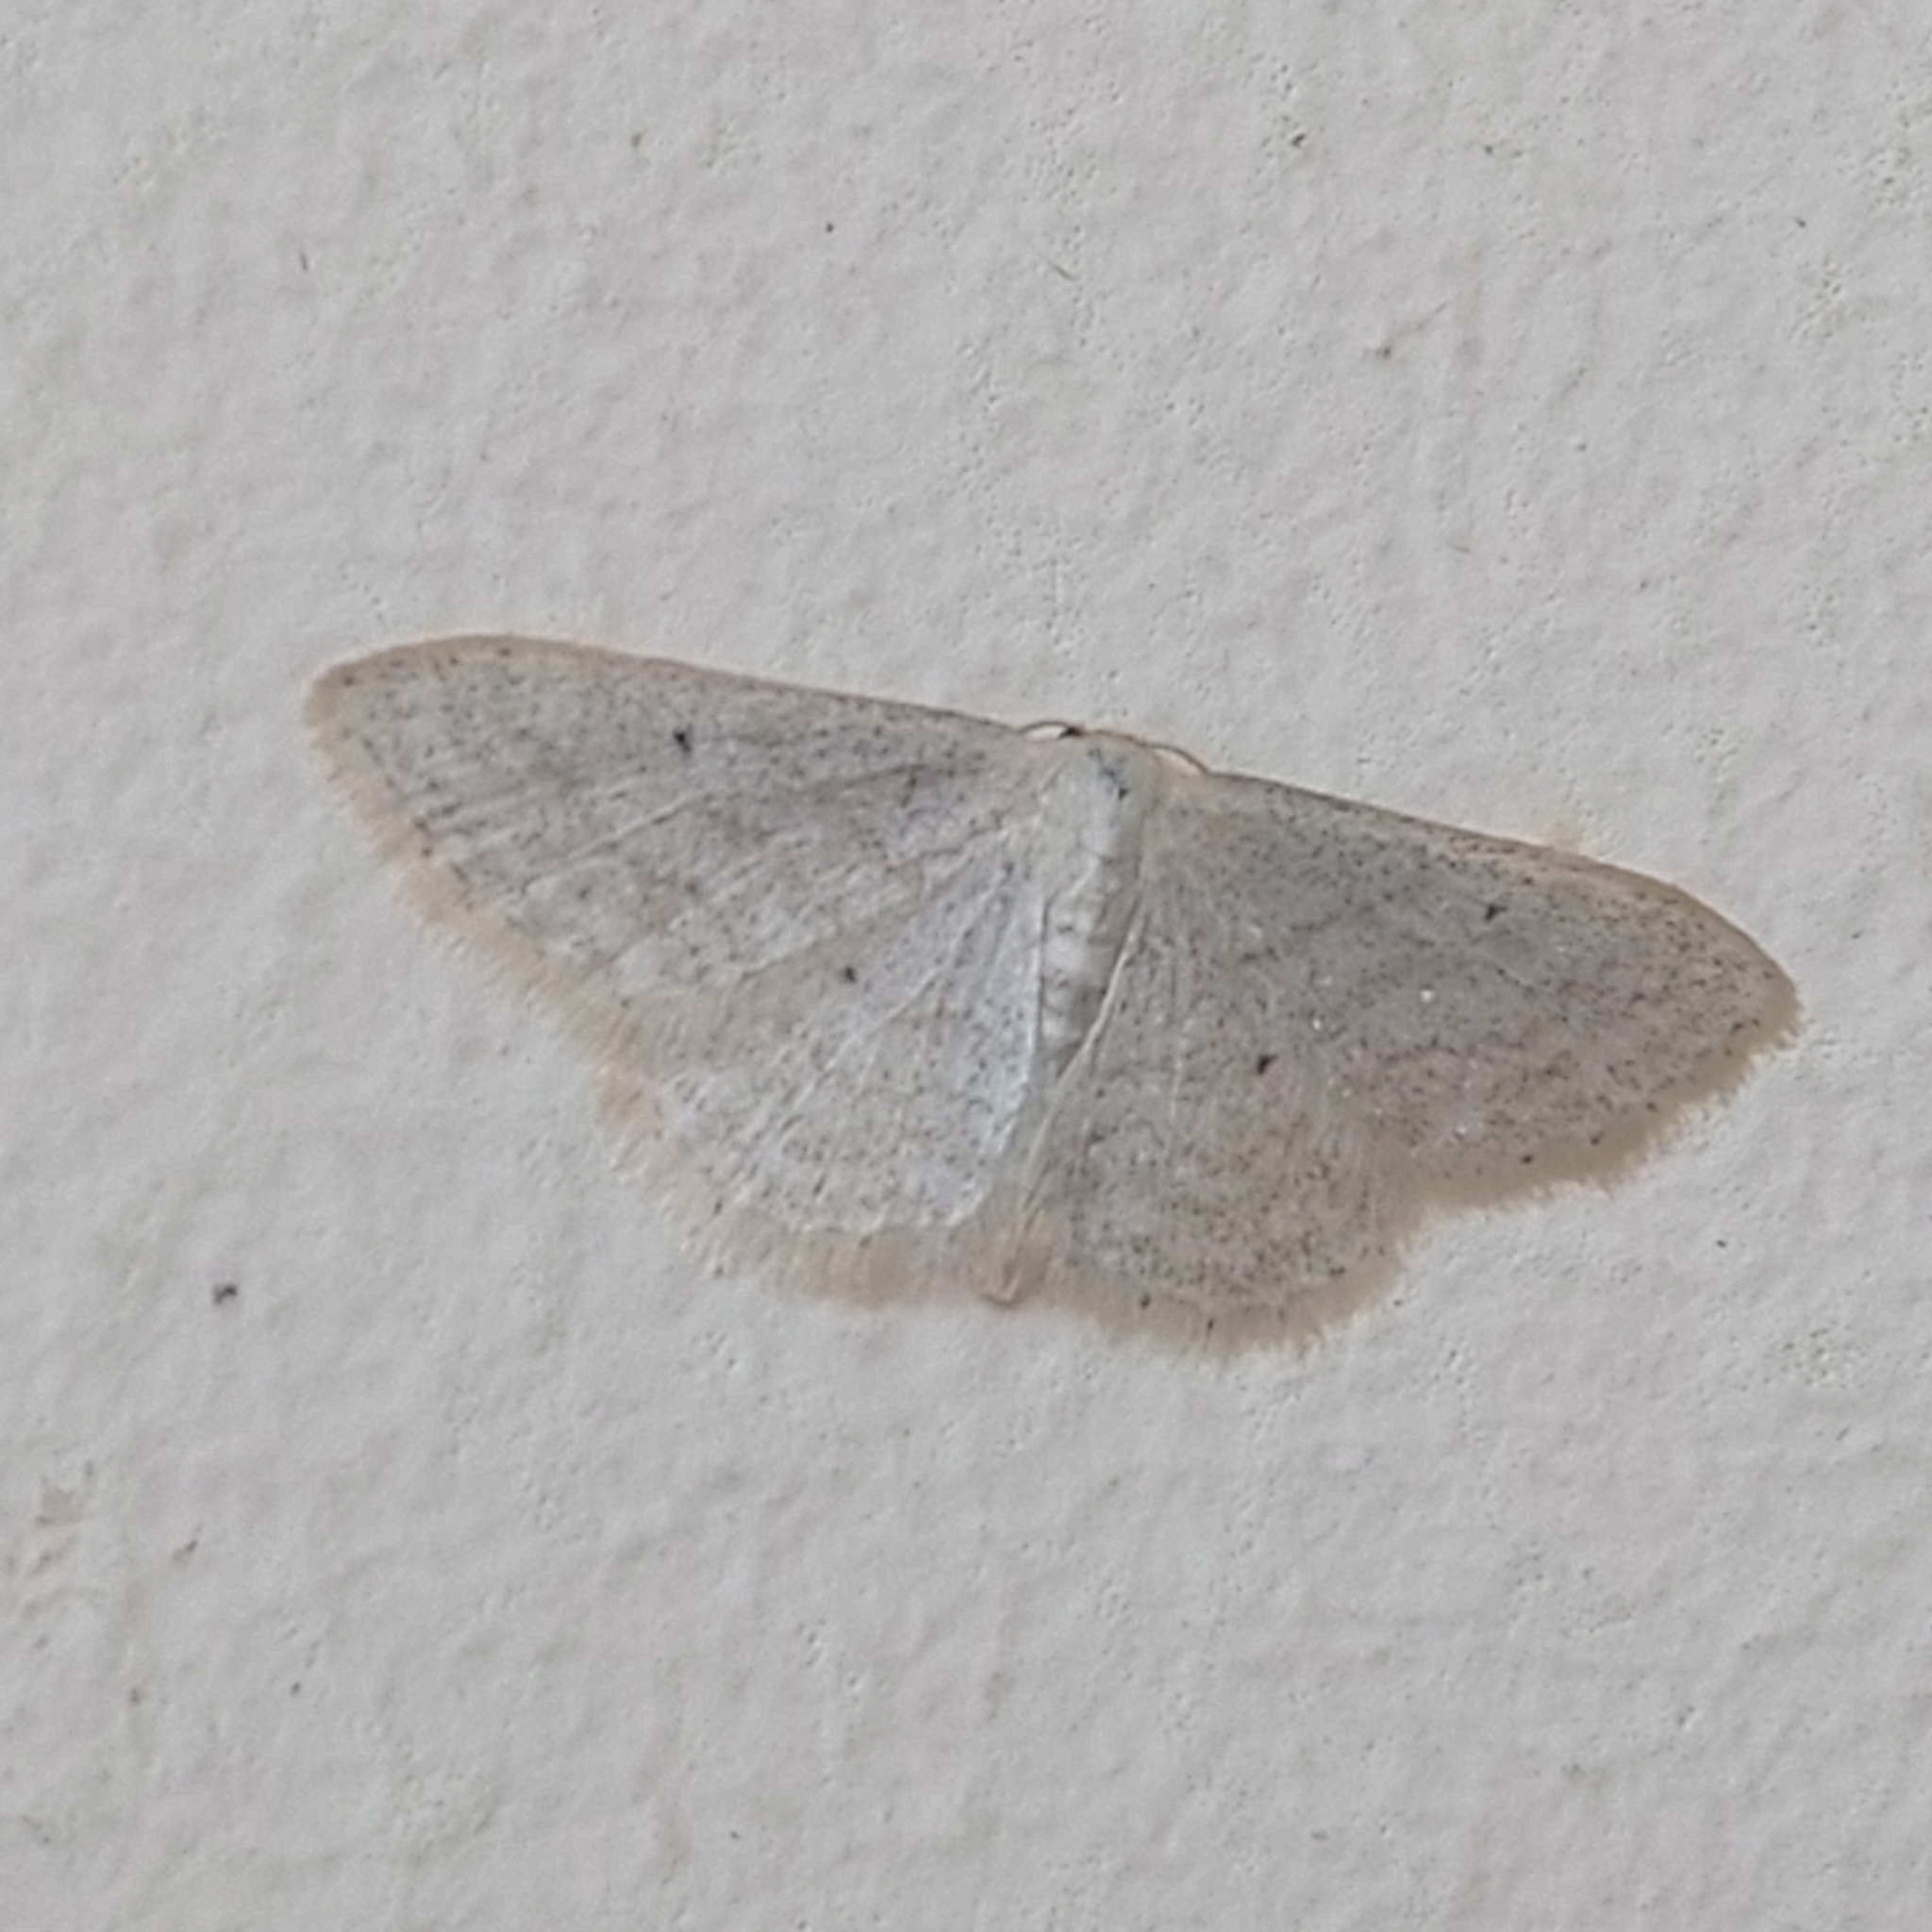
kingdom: Animalia
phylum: Arthropoda
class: Insecta
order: Lepidoptera
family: Geometridae
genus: Idaea
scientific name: Idaea subsericeata
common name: Satin wave
